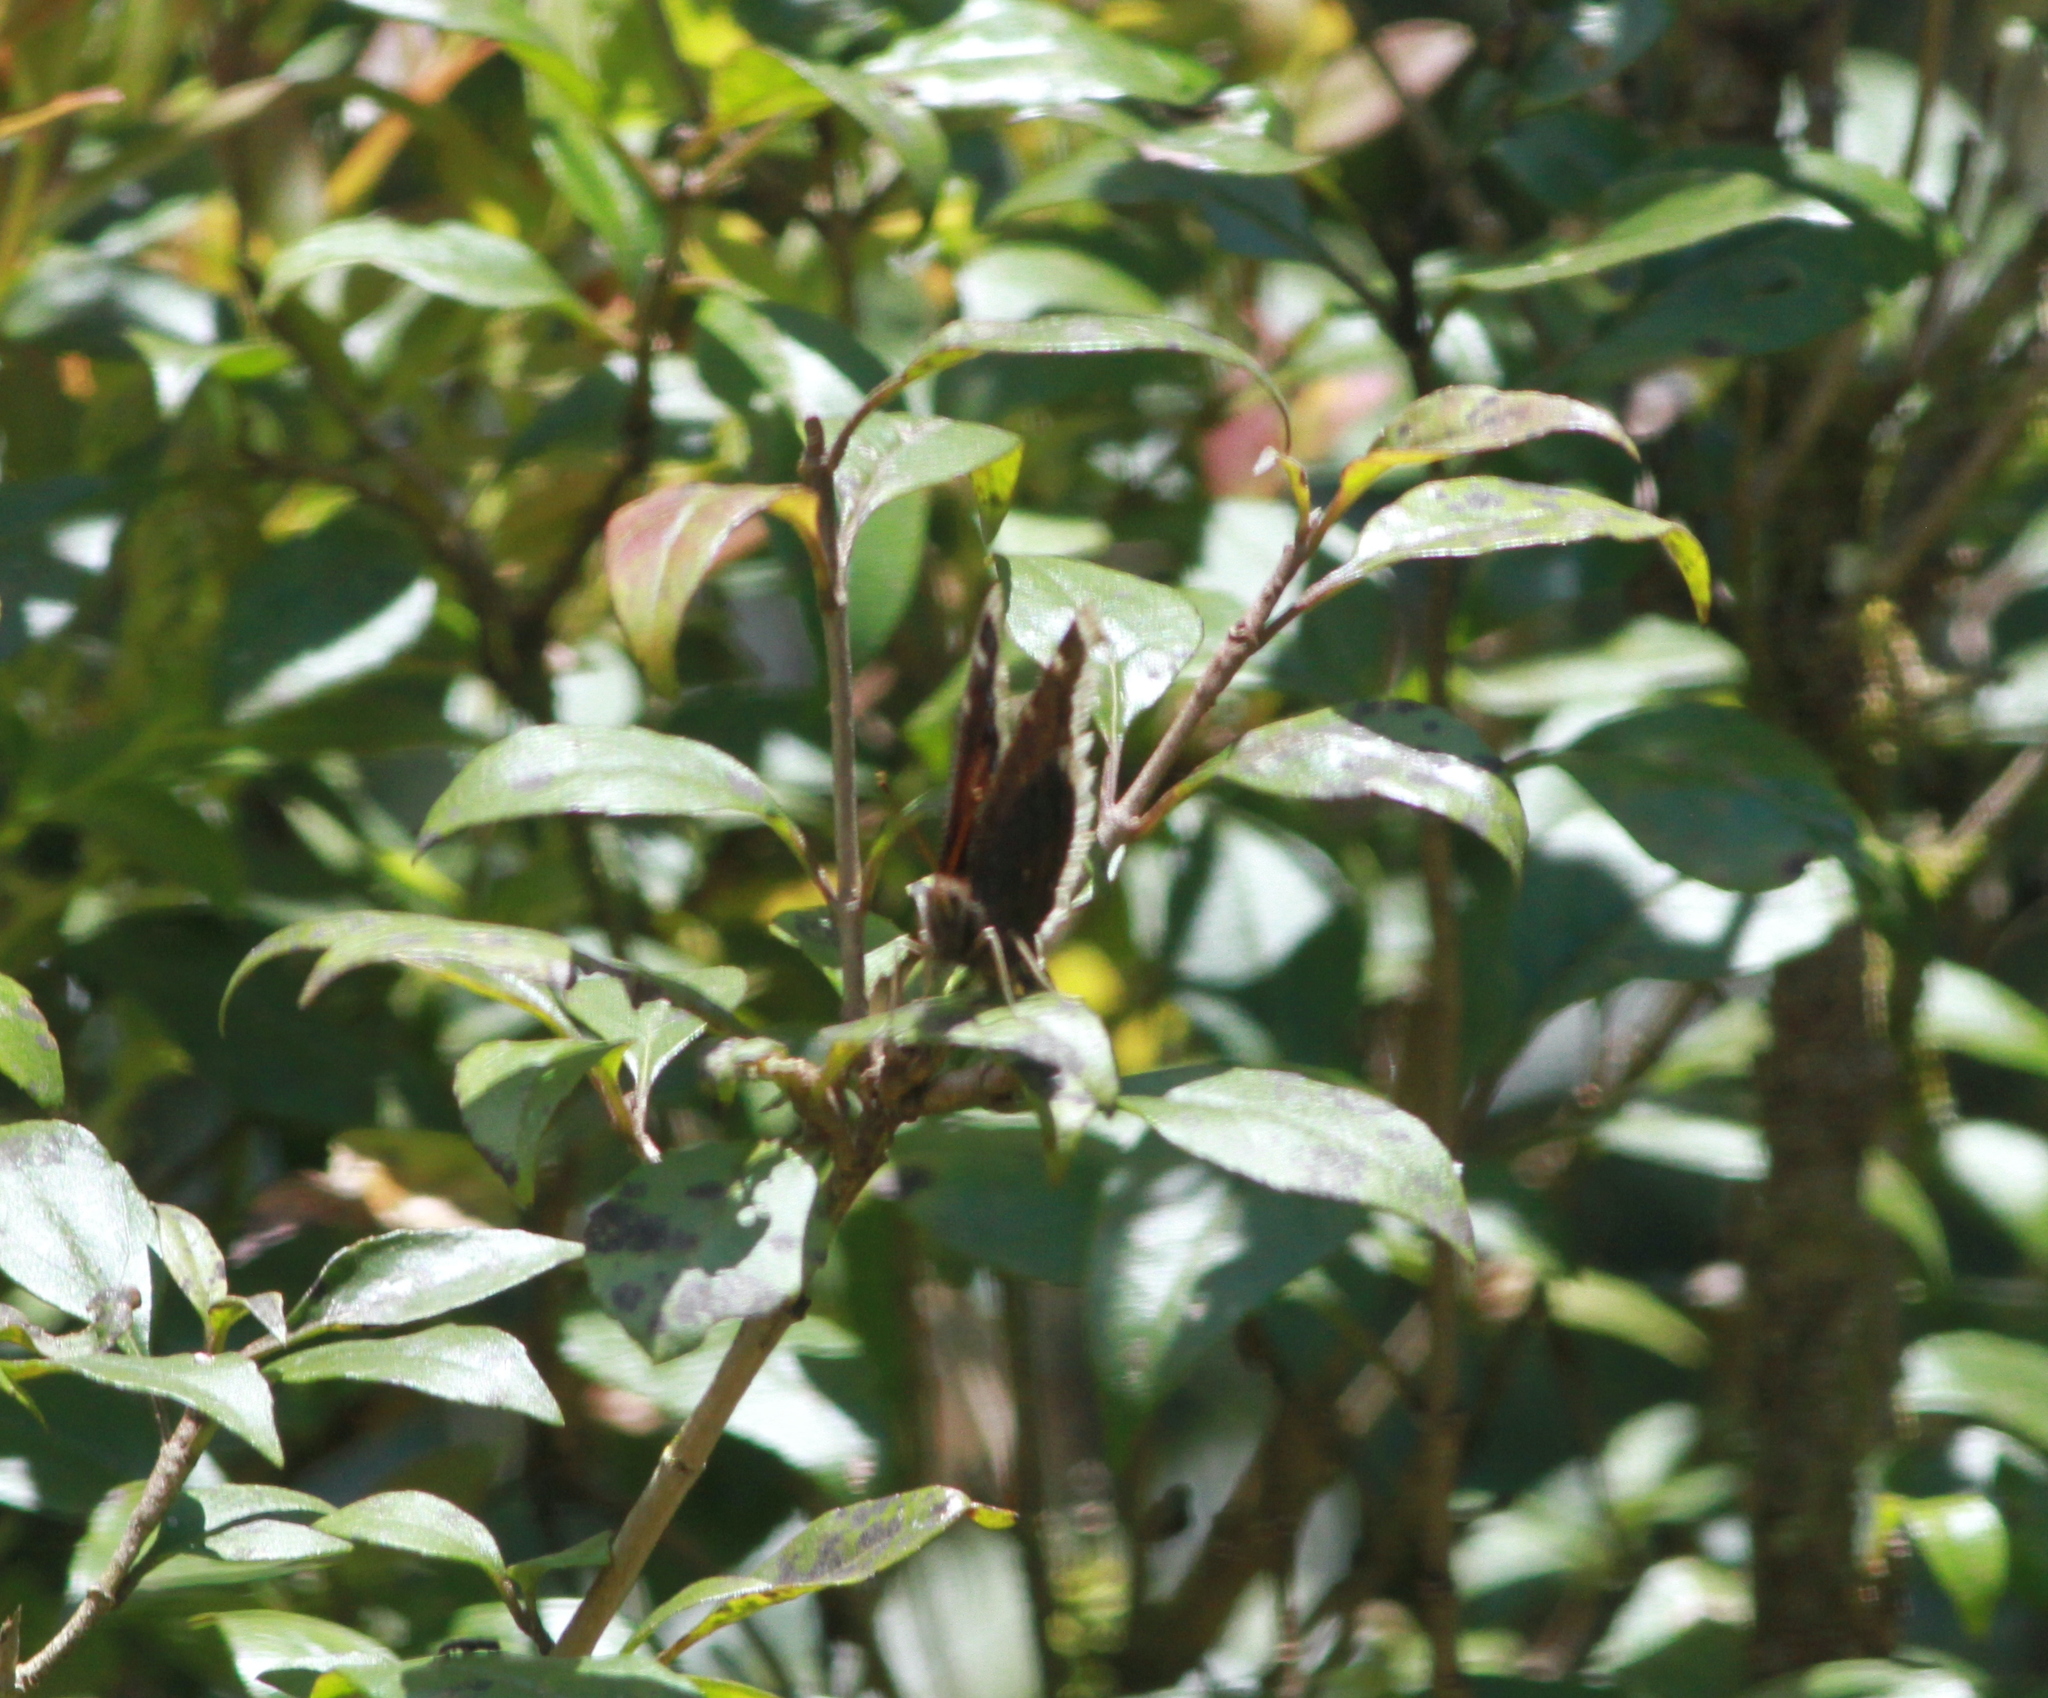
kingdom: Animalia
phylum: Arthropoda
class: Insecta
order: Lepidoptera
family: Nymphalidae
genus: Nymphalis
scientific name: Nymphalis antiopa
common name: Camberwell beauty
